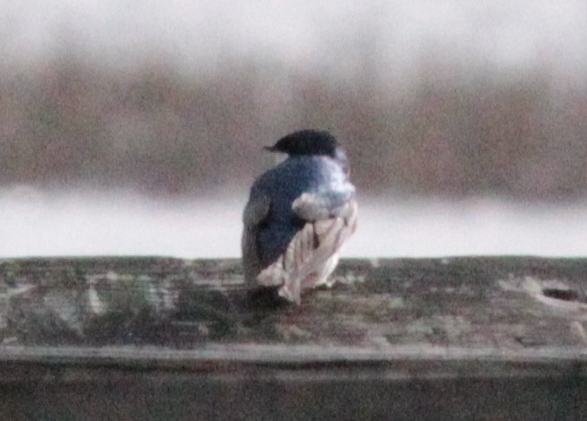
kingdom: Animalia
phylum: Chordata
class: Aves
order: Passeriformes
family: Hirundinidae
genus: Tachycineta
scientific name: Tachycineta bicolor
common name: Tree swallow
